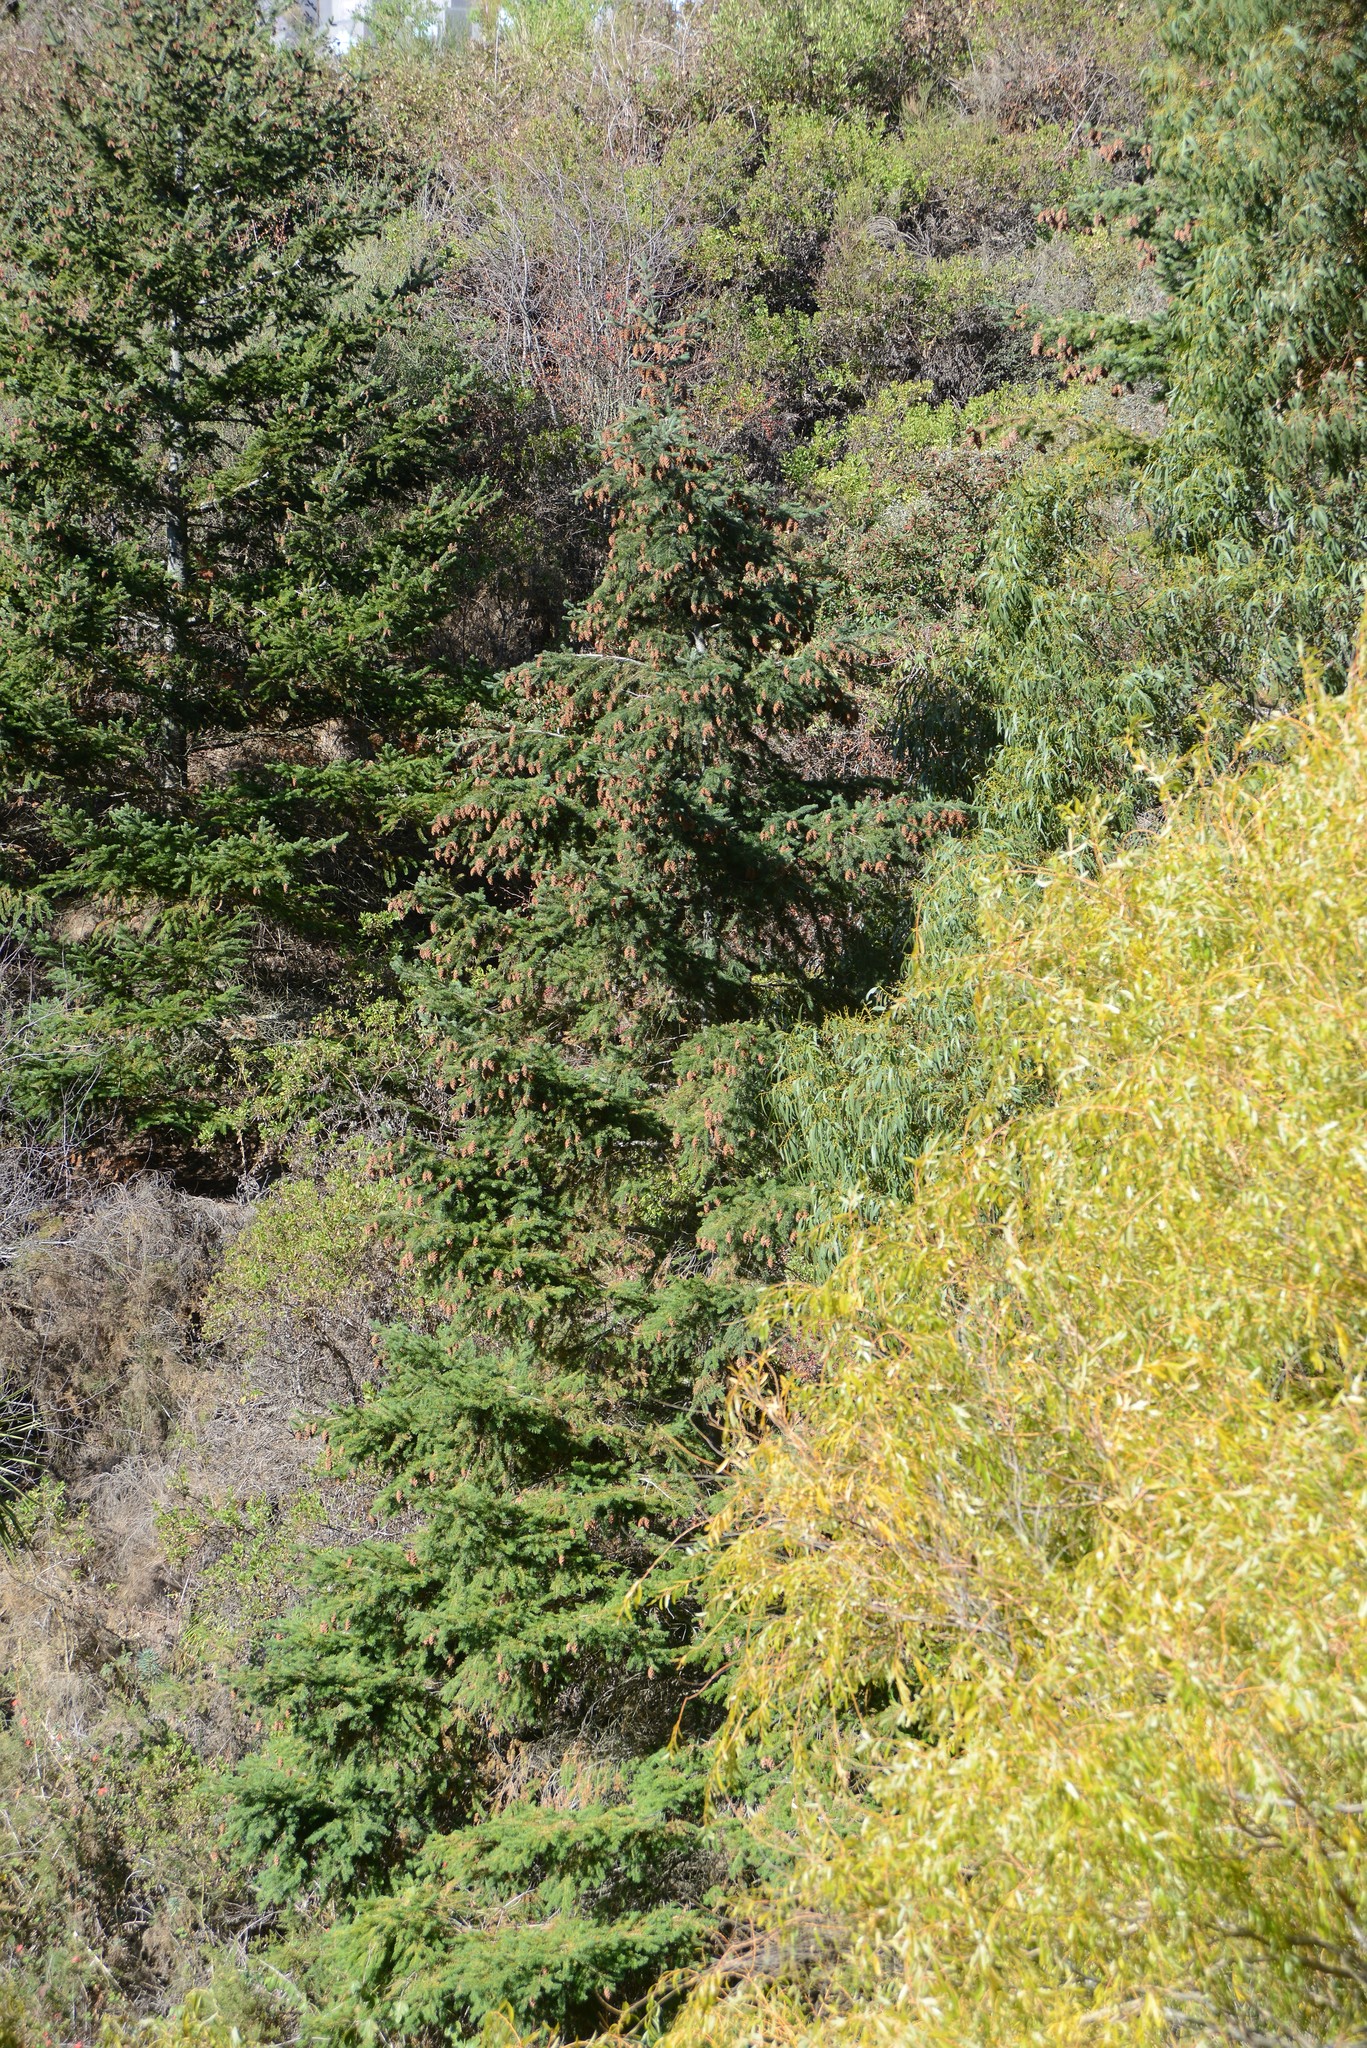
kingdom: Plantae
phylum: Tracheophyta
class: Pinopsida
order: Pinales
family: Pinaceae
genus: Pseudotsuga
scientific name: Pseudotsuga menziesii
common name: Douglas fir
